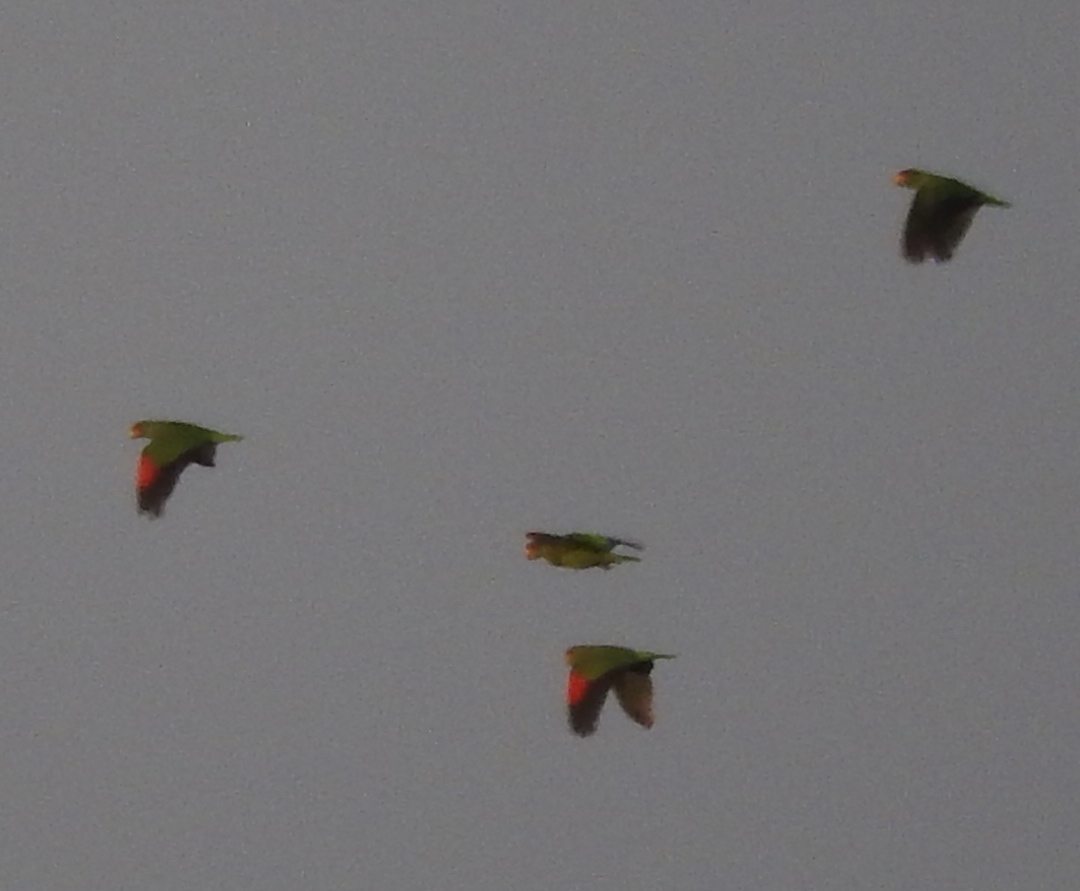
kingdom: Animalia
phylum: Chordata
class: Aves
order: Psittaciformes
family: Psittacidae
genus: Amazona
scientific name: Amazona albifrons
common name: White-fronted amazon
